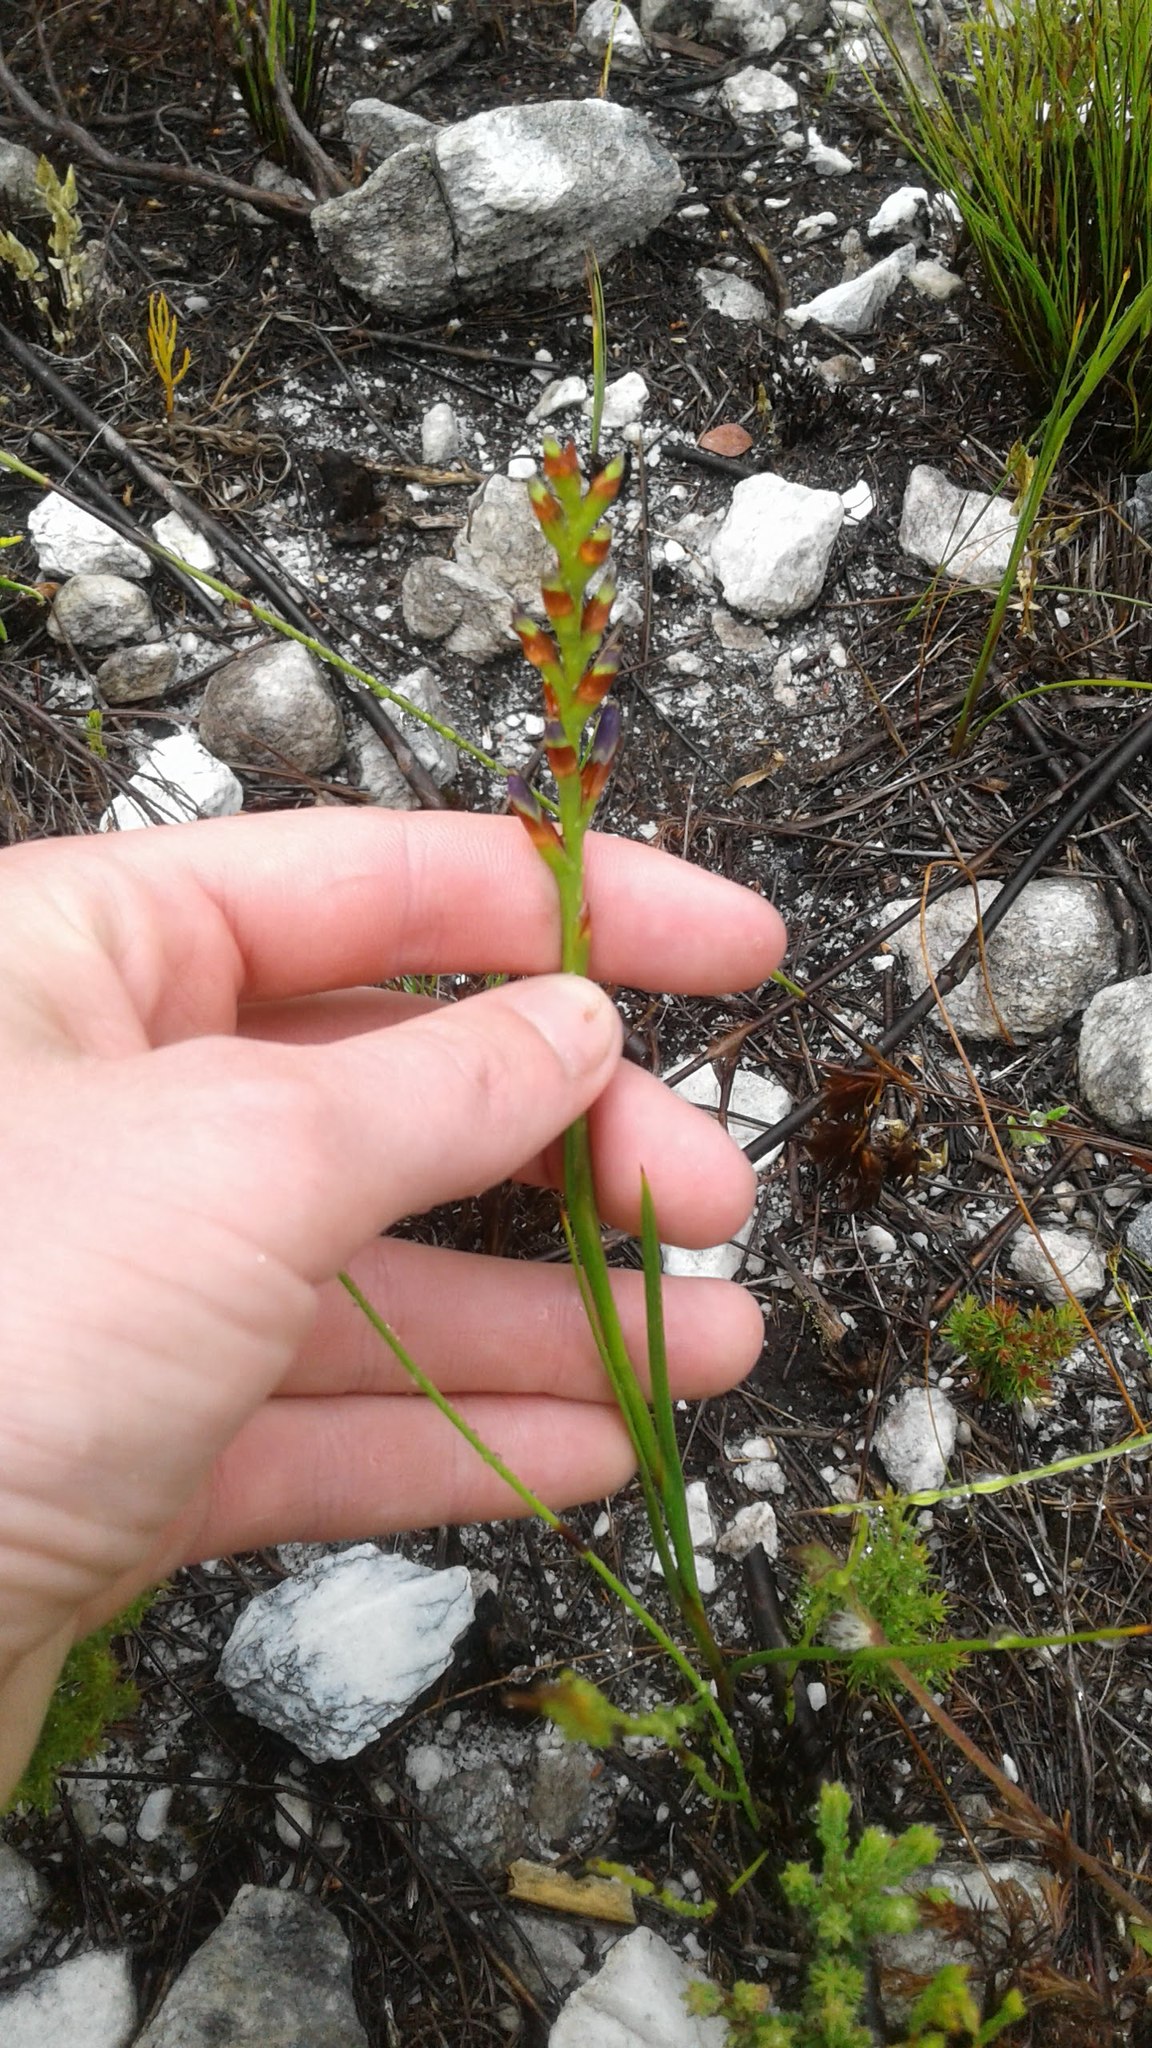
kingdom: Plantae
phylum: Tracheophyta
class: Liliopsida
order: Asparagales
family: Iridaceae
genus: Thereianthus
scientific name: Thereianthus bracteolatus
